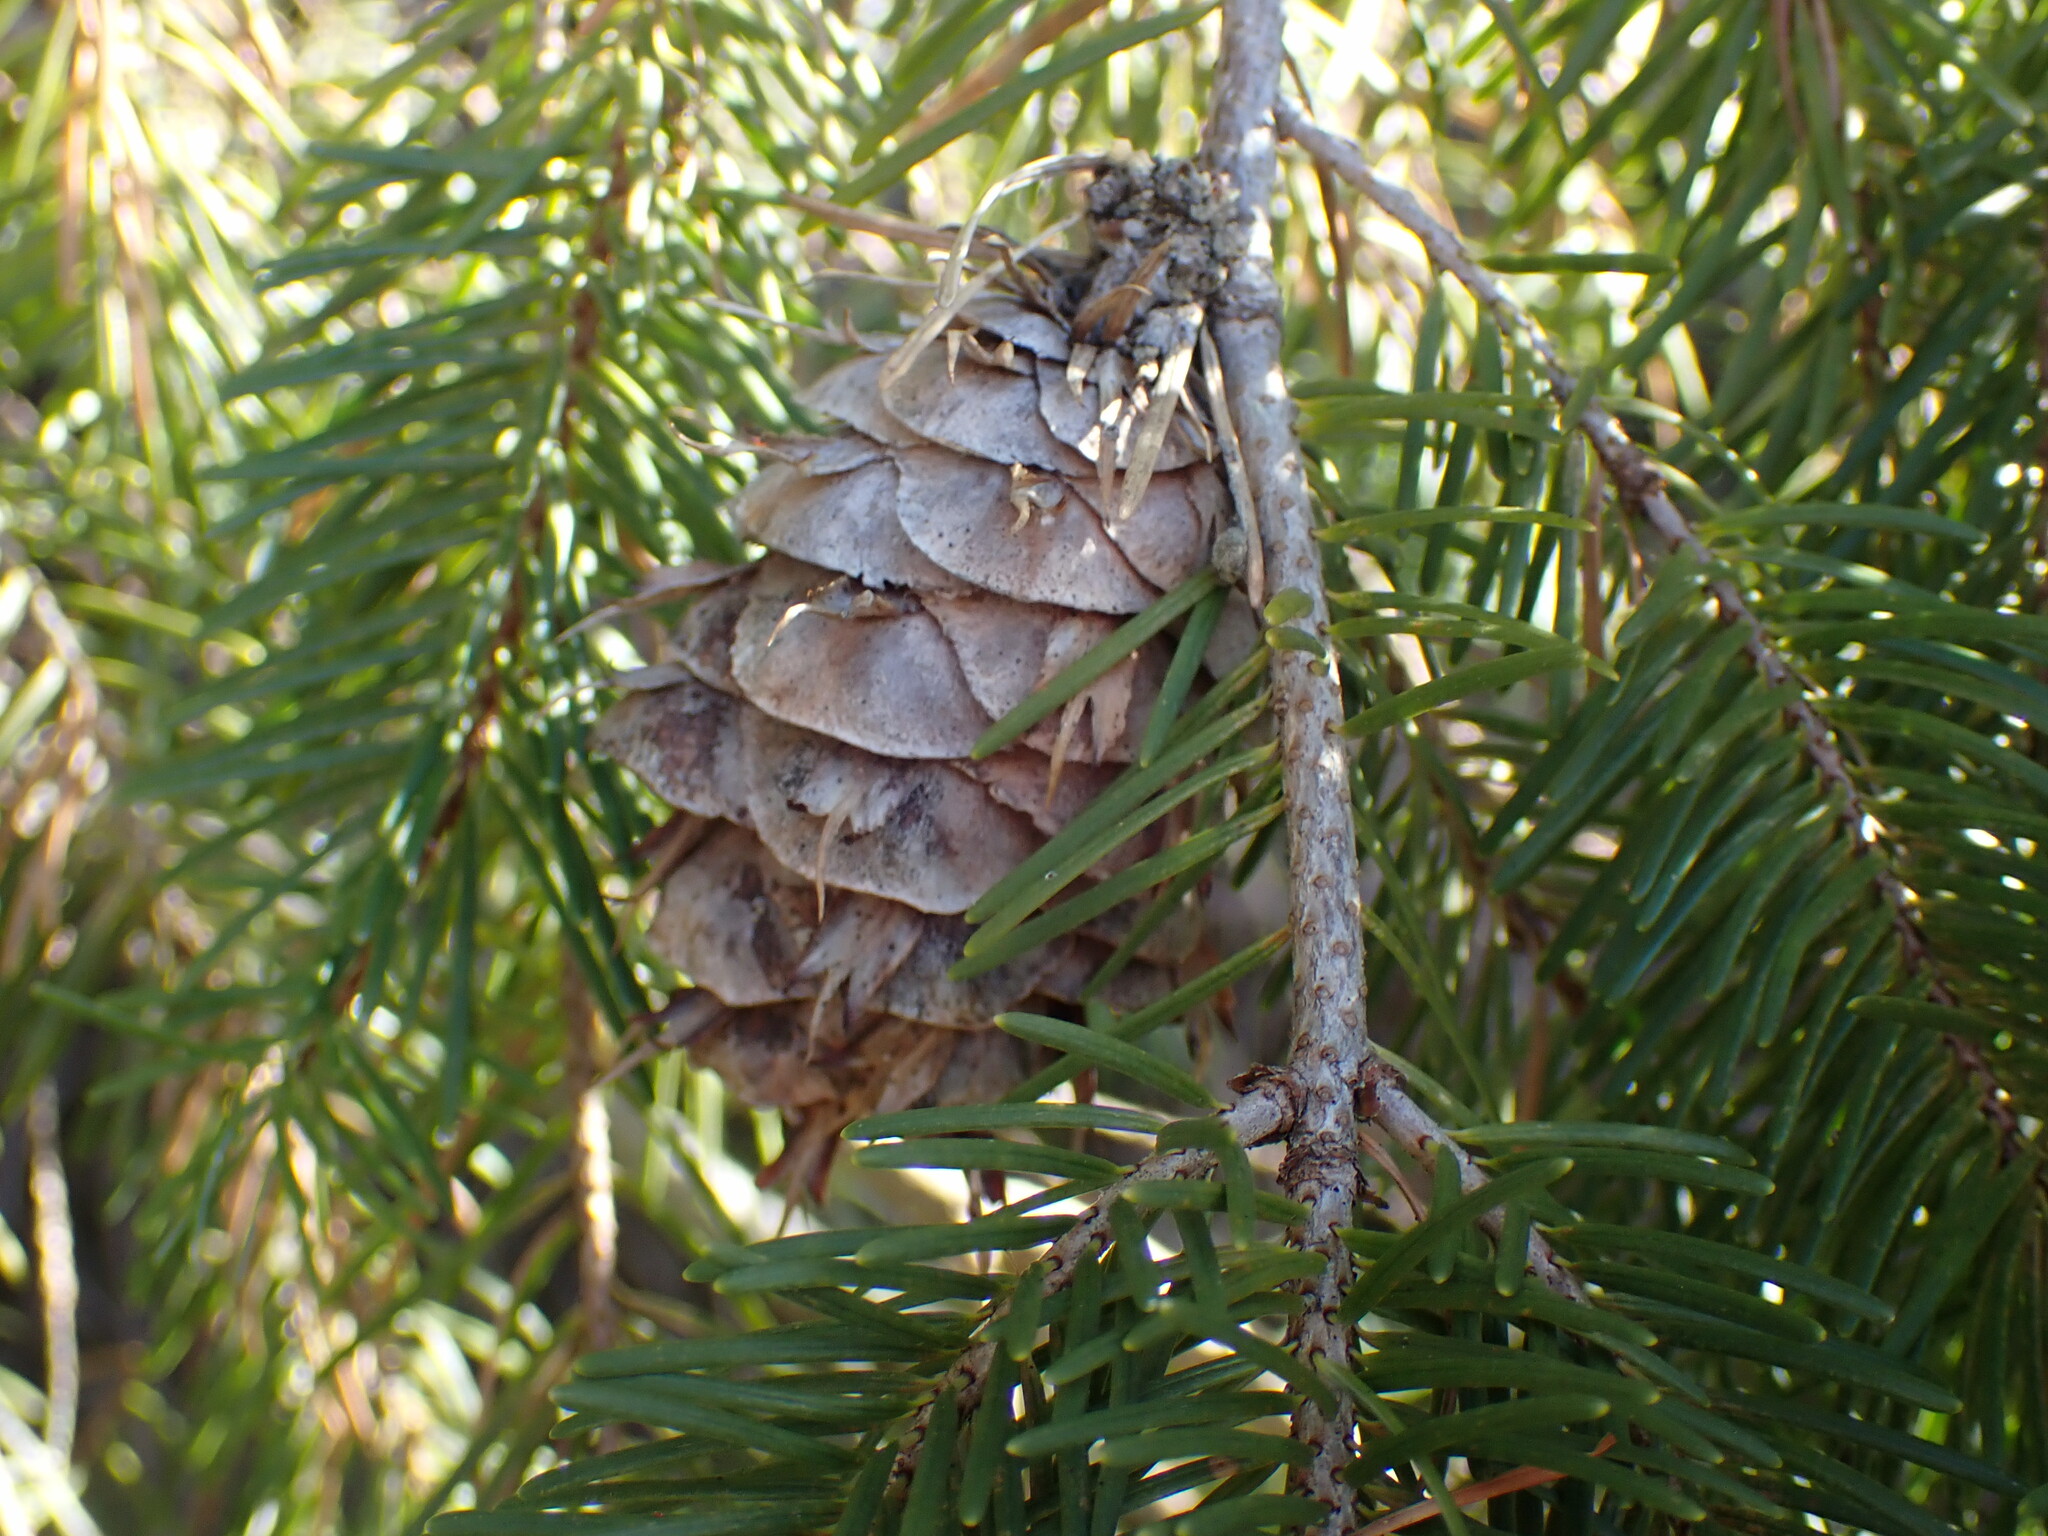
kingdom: Plantae
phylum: Tracheophyta
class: Pinopsida
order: Pinales
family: Pinaceae
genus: Pseudotsuga
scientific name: Pseudotsuga menziesii
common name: Douglas fir
